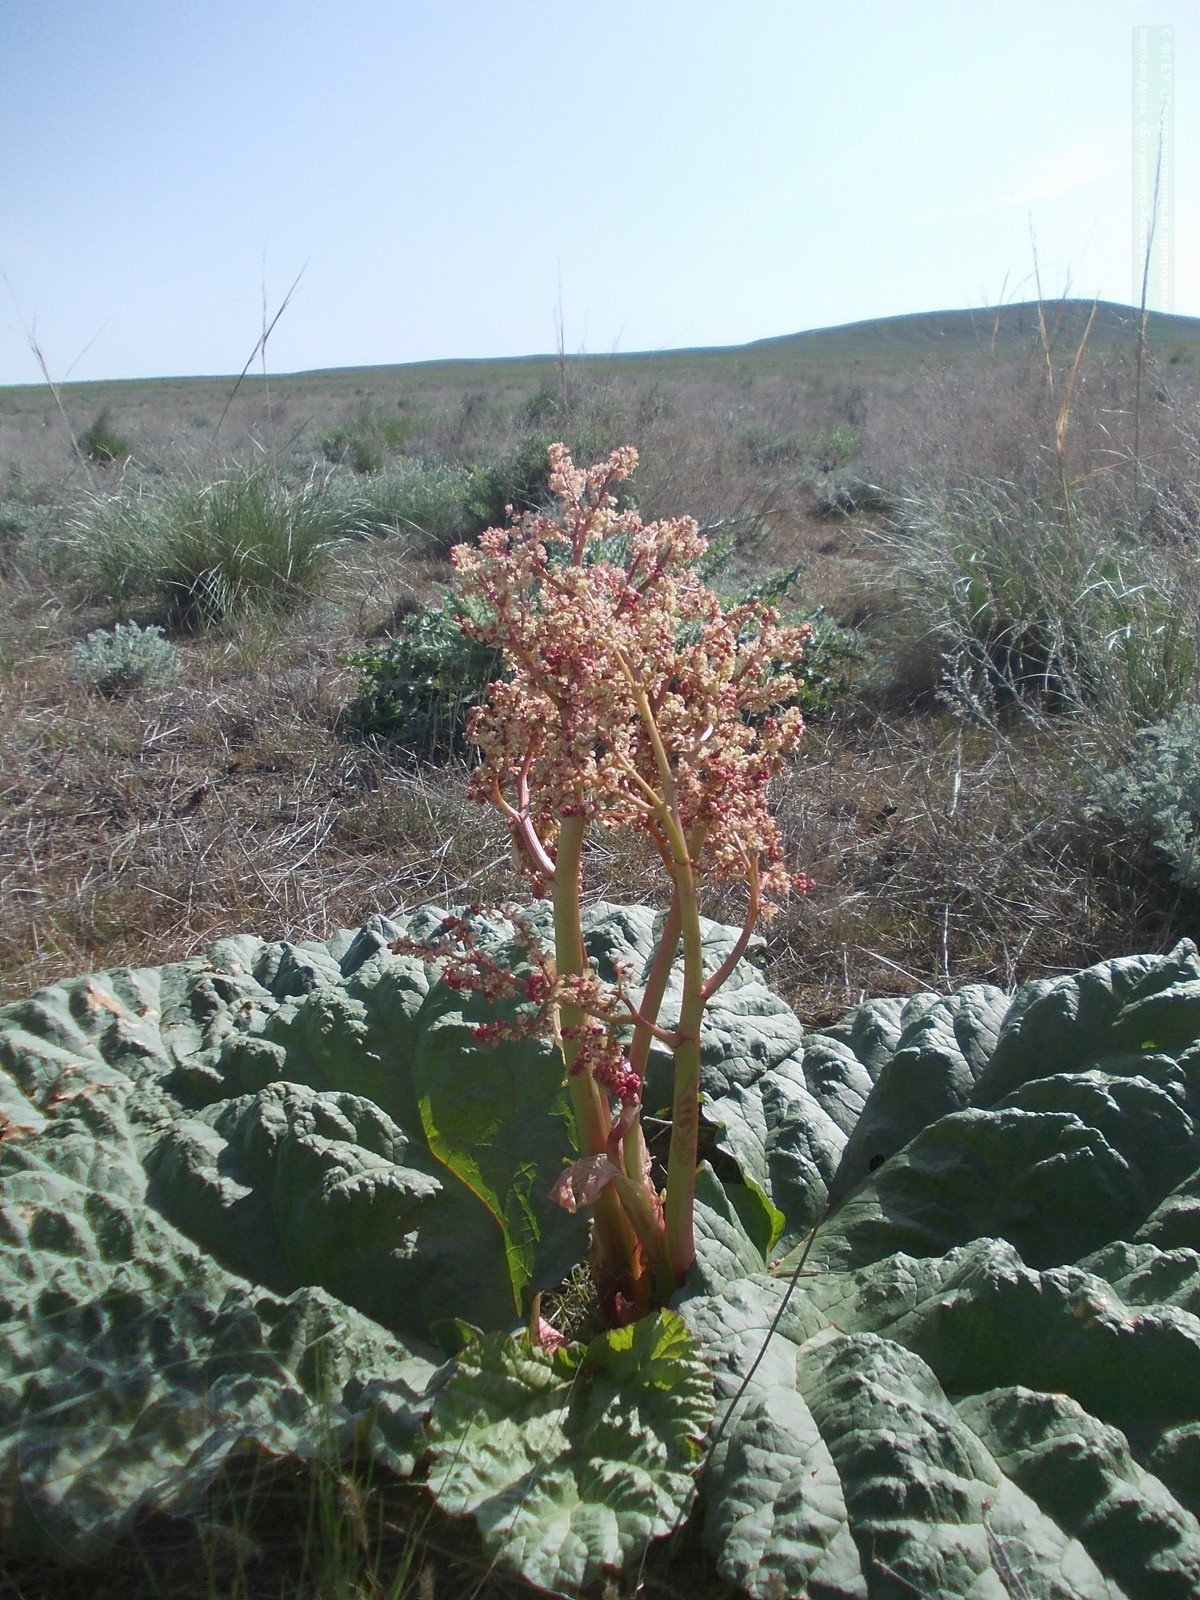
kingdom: Plantae
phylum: Tracheophyta
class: Magnoliopsida
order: Caryophyllales
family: Polygonaceae
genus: Rheum
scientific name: Rheum tataricum
